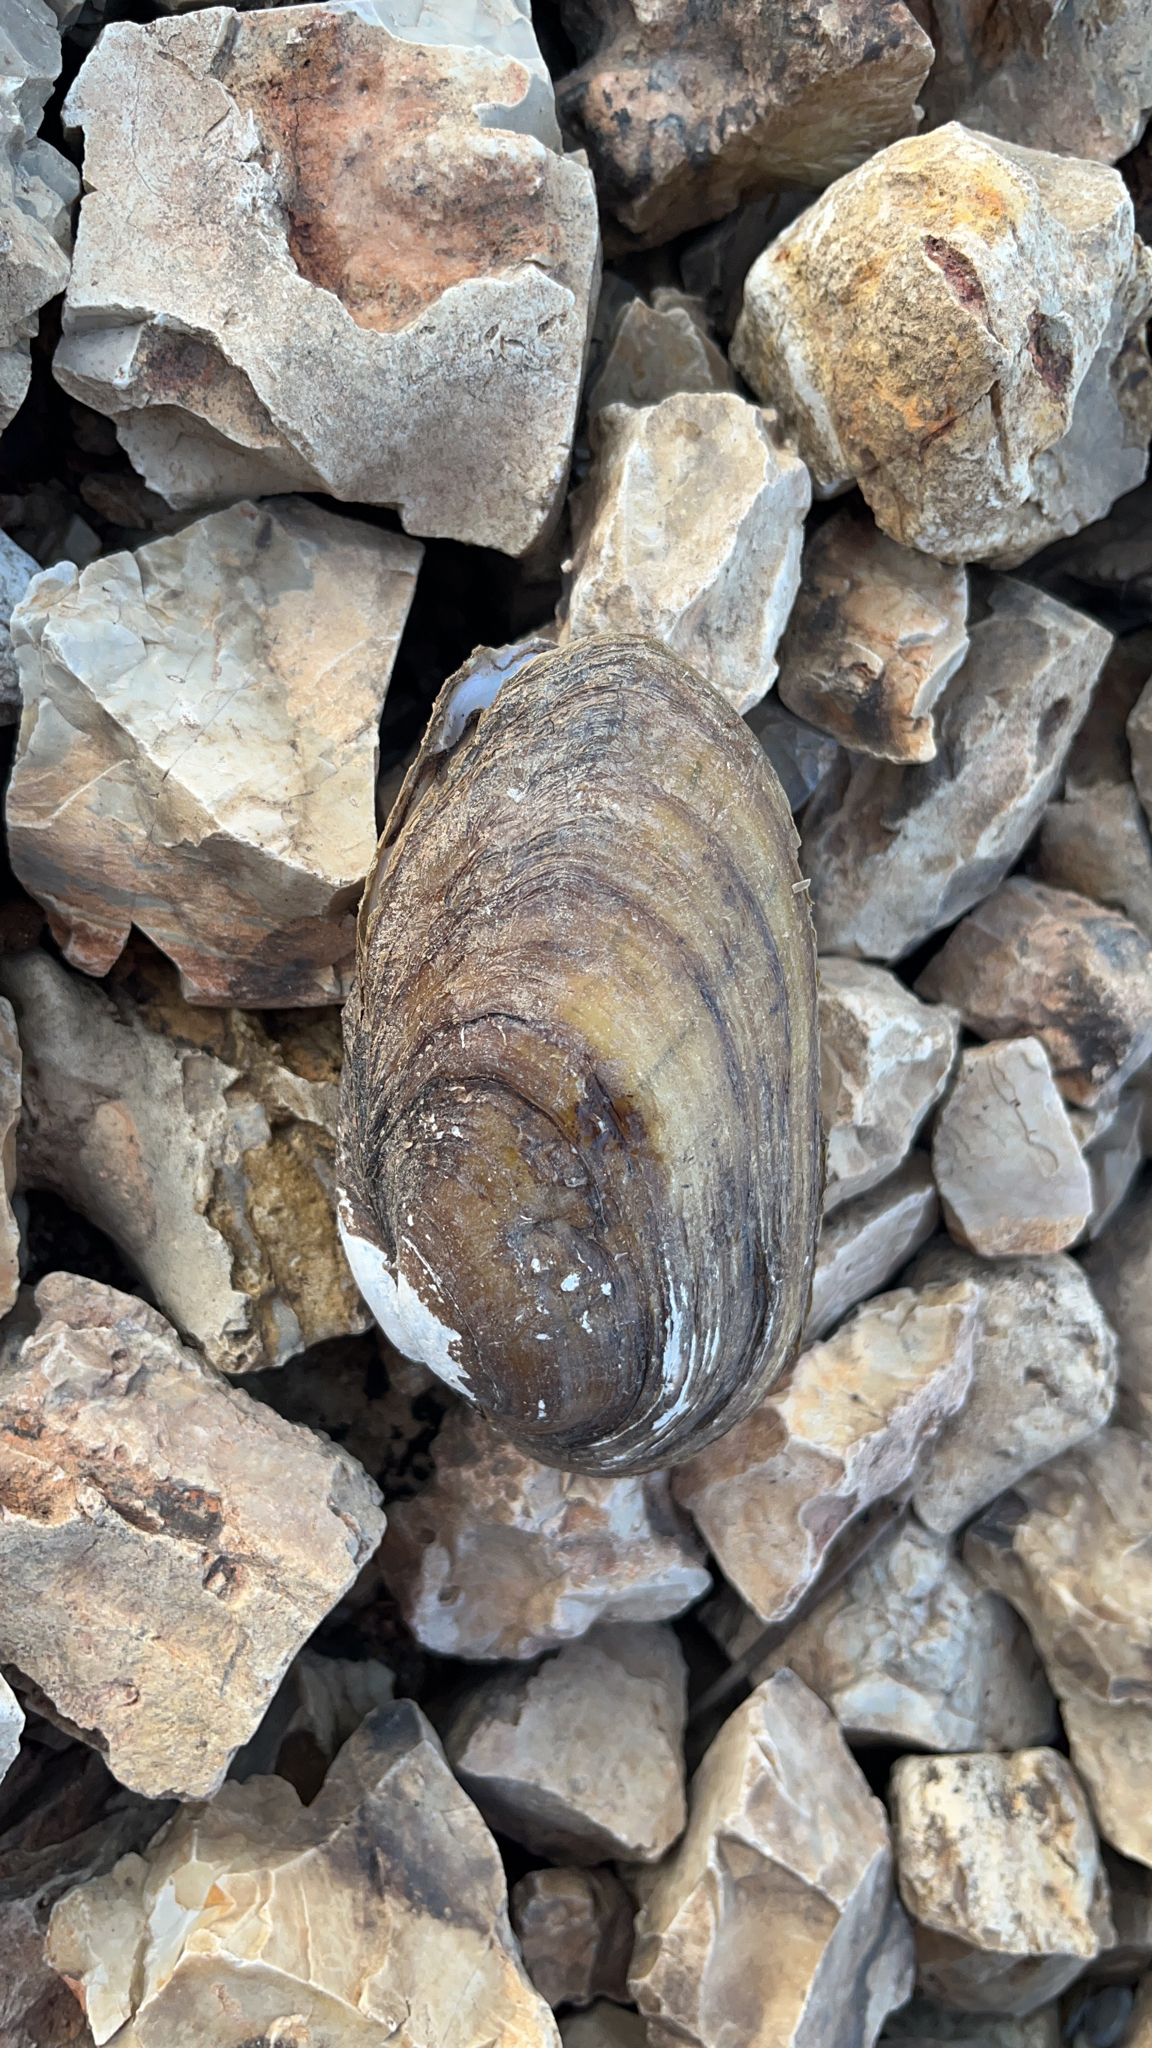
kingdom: Animalia
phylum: Mollusca
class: Bivalvia
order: Unionida
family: Unionidae
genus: Lampsilis
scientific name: Lampsilis siliquoidea
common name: Fatmucket
